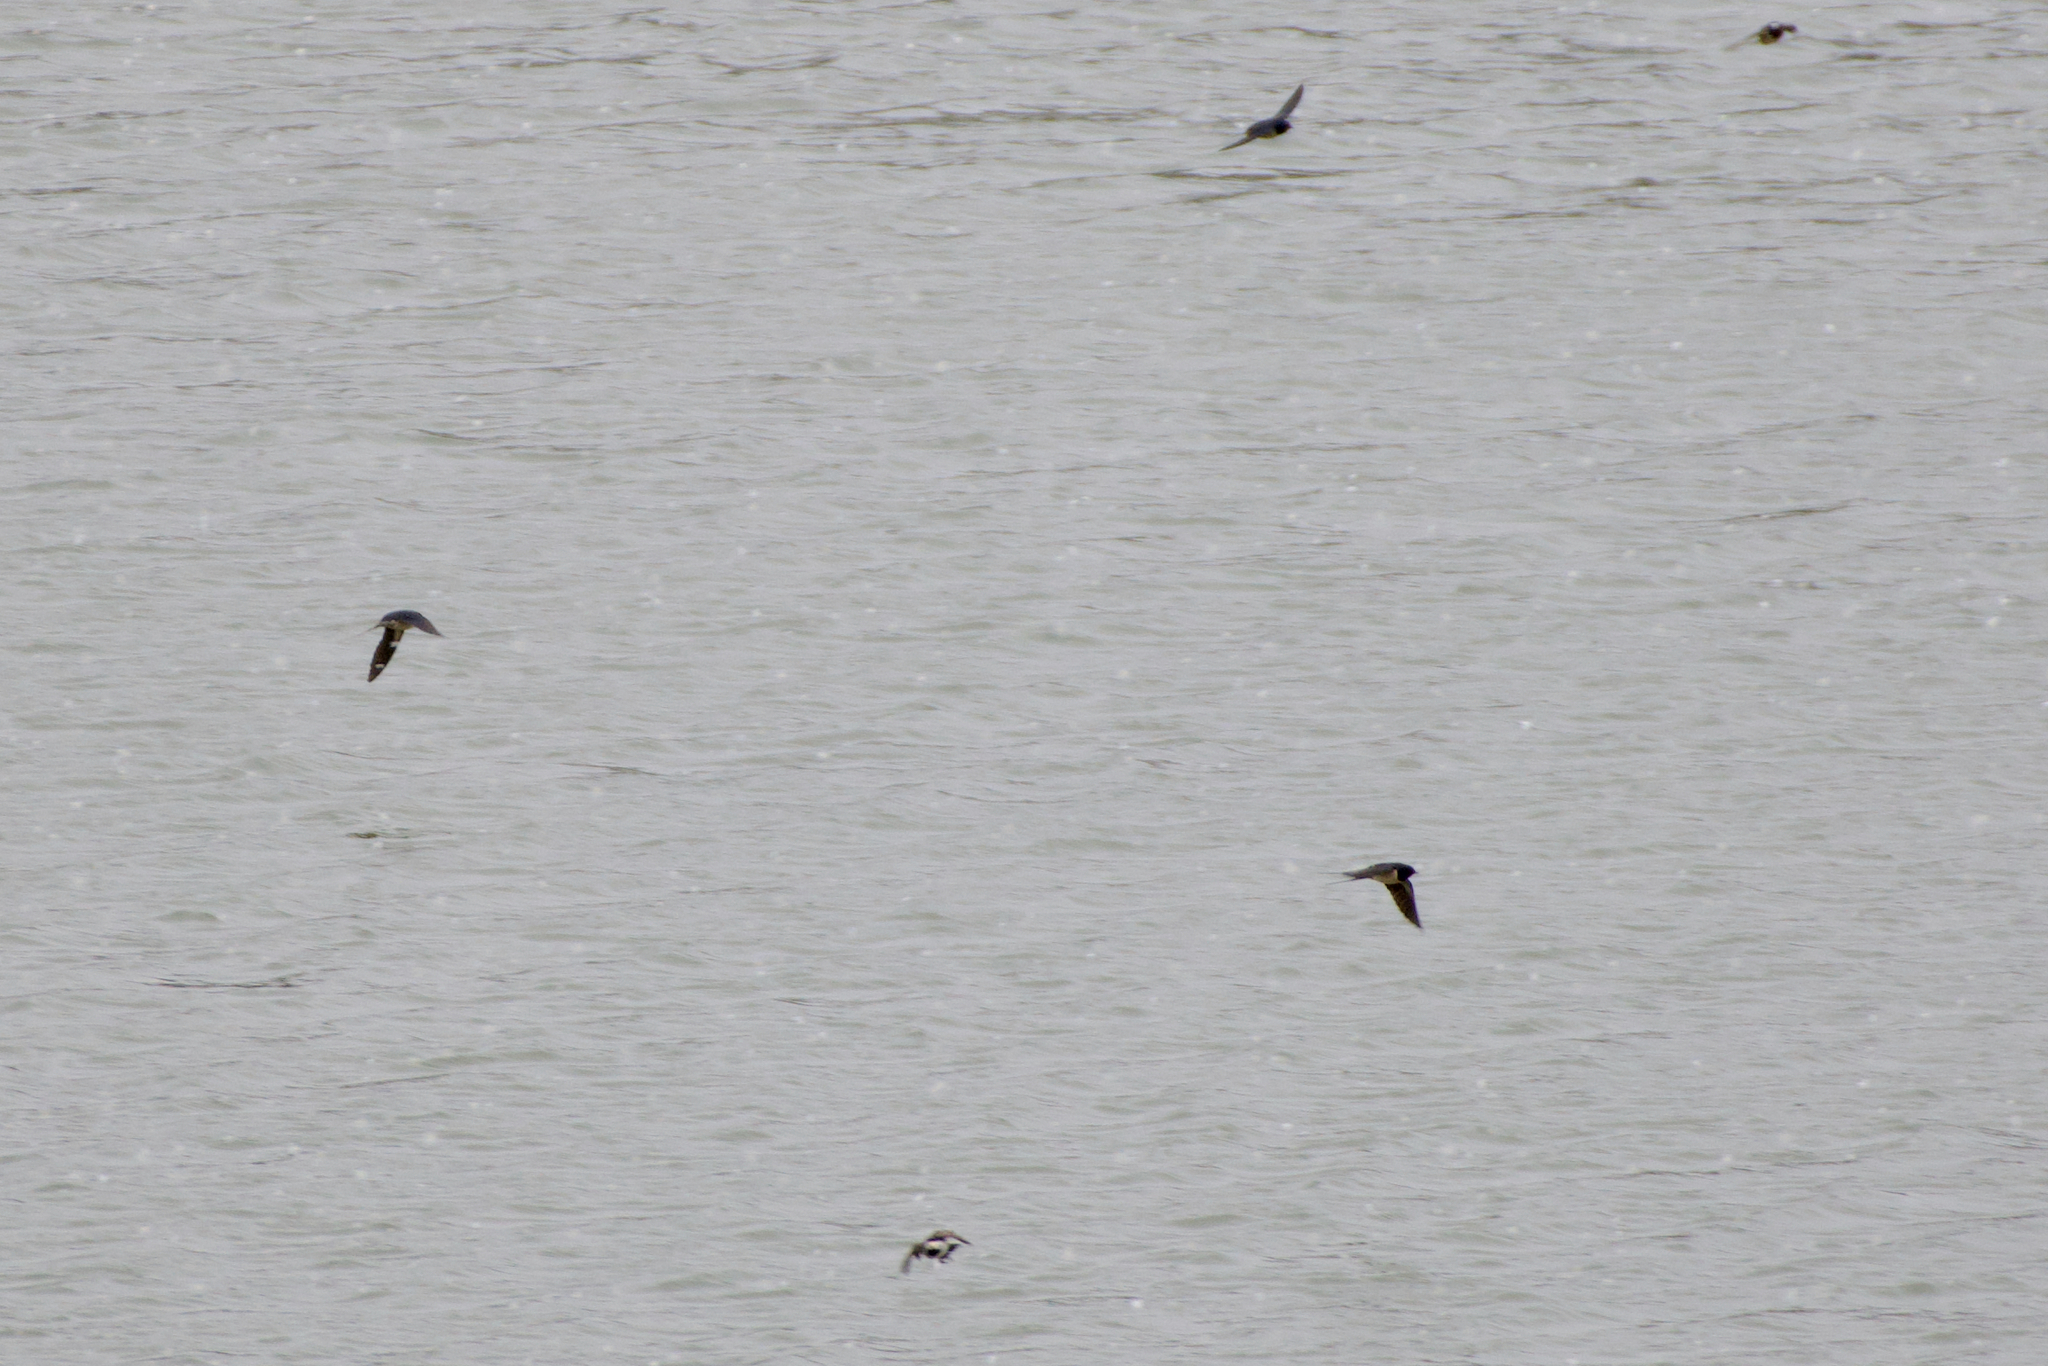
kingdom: Animalia
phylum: Chordata
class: Aves
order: Passeriformes
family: Hirundinidae
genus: Hirundo
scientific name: Hirundo rustica
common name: Barn swallow
